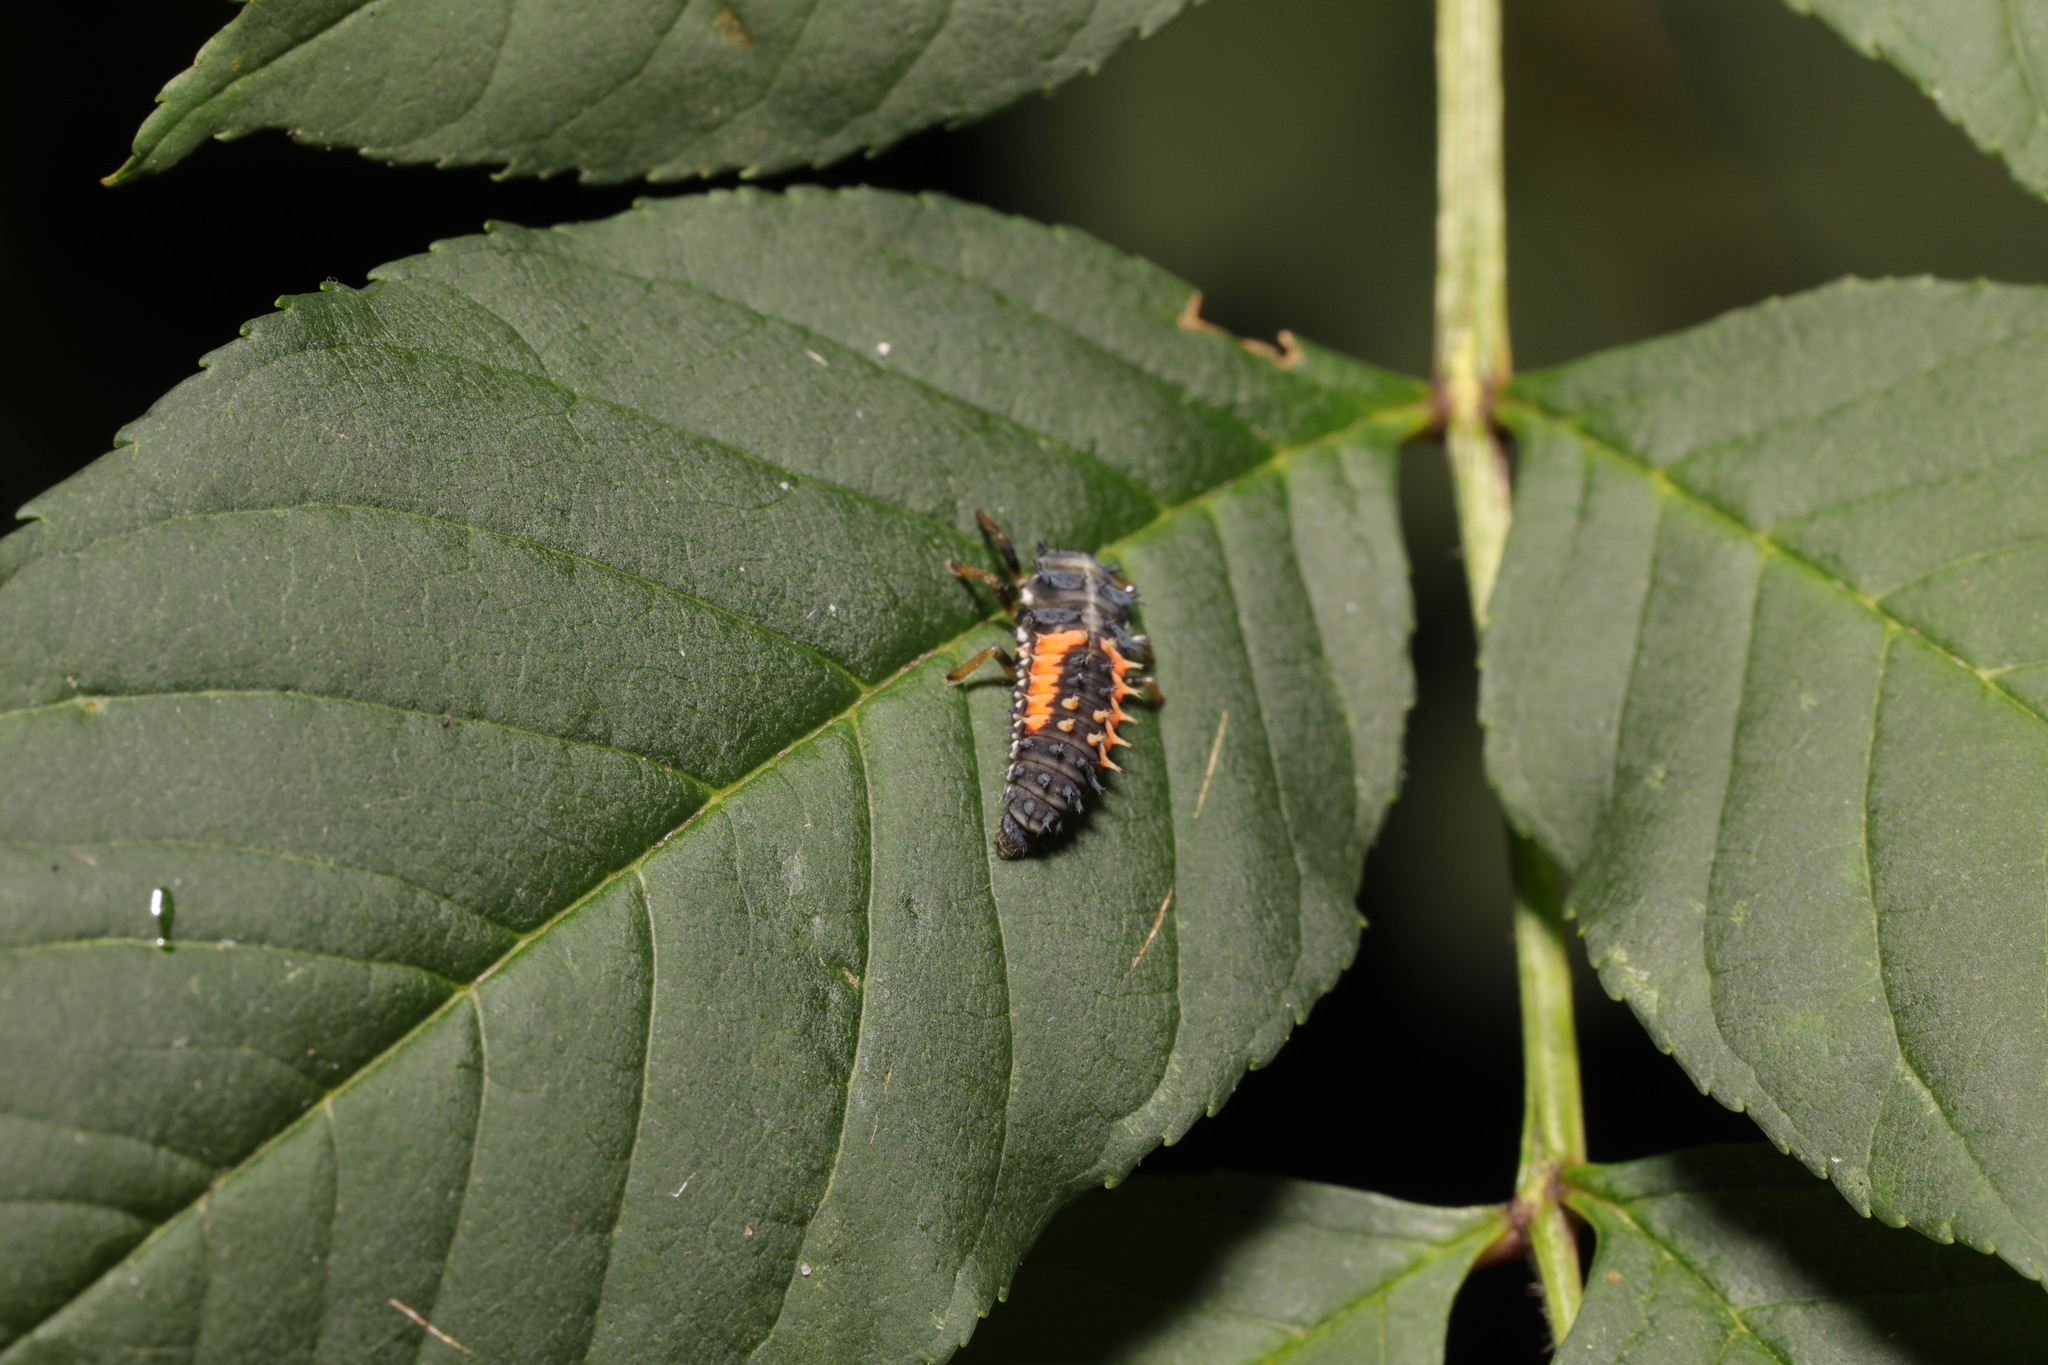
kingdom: Animalia
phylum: Arthropoda
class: Insecta
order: Coleoptera
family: Coccinellidae
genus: Harmonia
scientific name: Harmonia axyridis
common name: Harlequin ladybird
